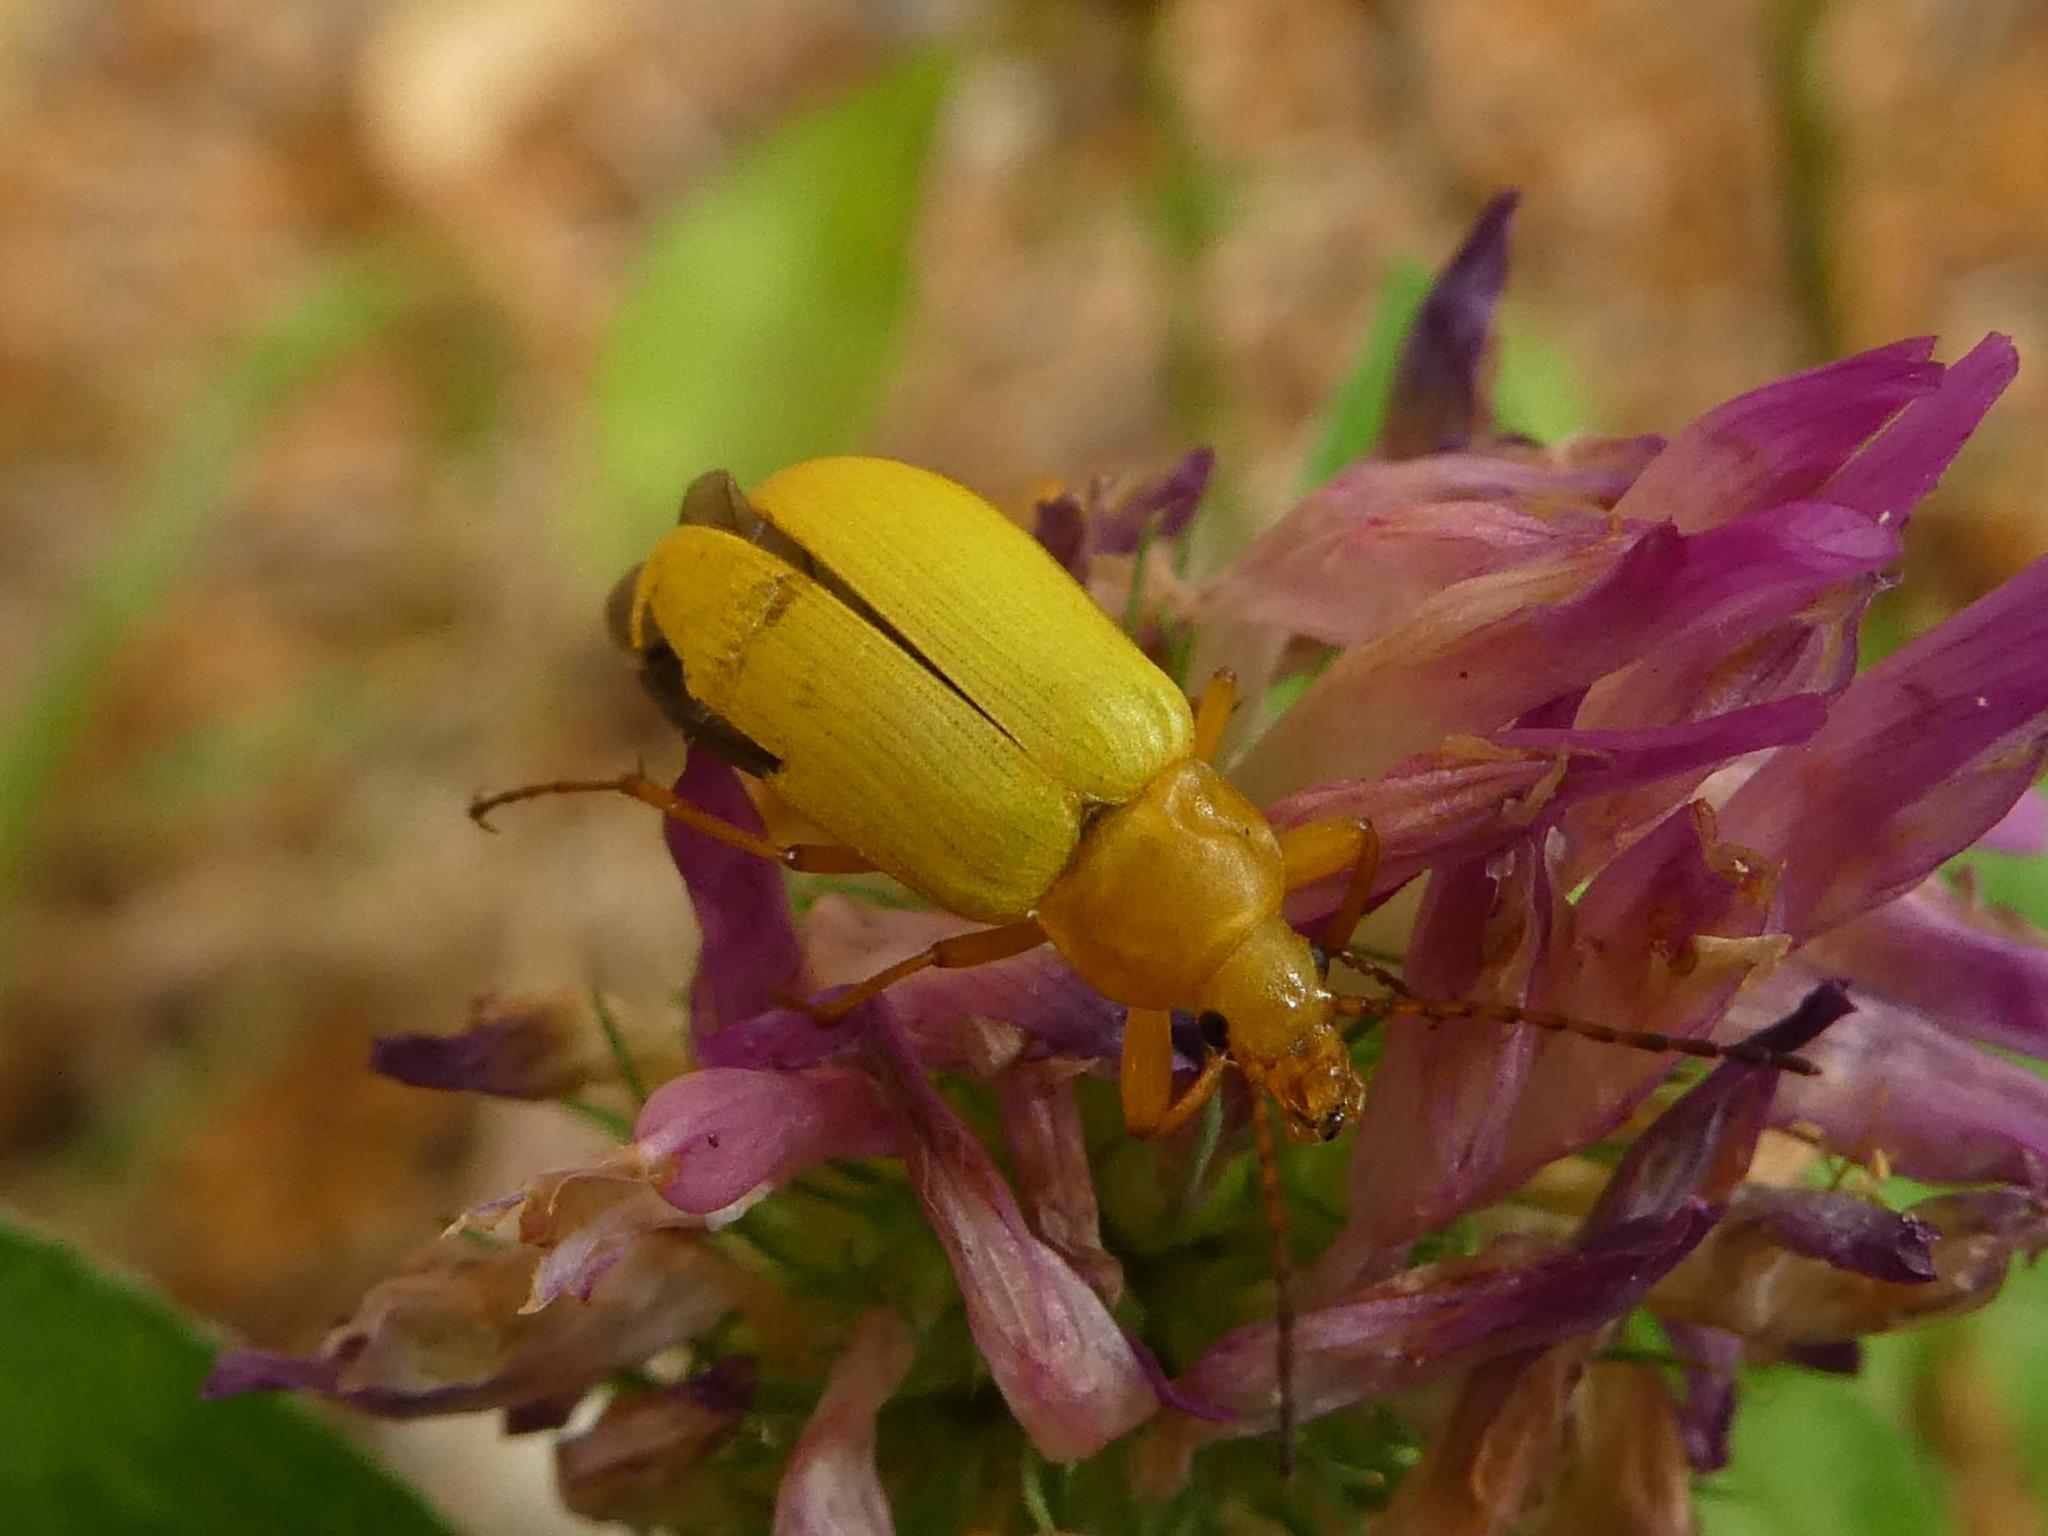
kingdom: Animalia
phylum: Arthropoda
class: Insecta
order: Coleoptera
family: Tenebrionidae
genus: Cteniopus
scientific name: Cteniopus sulphureus
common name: Sulphur beetle
